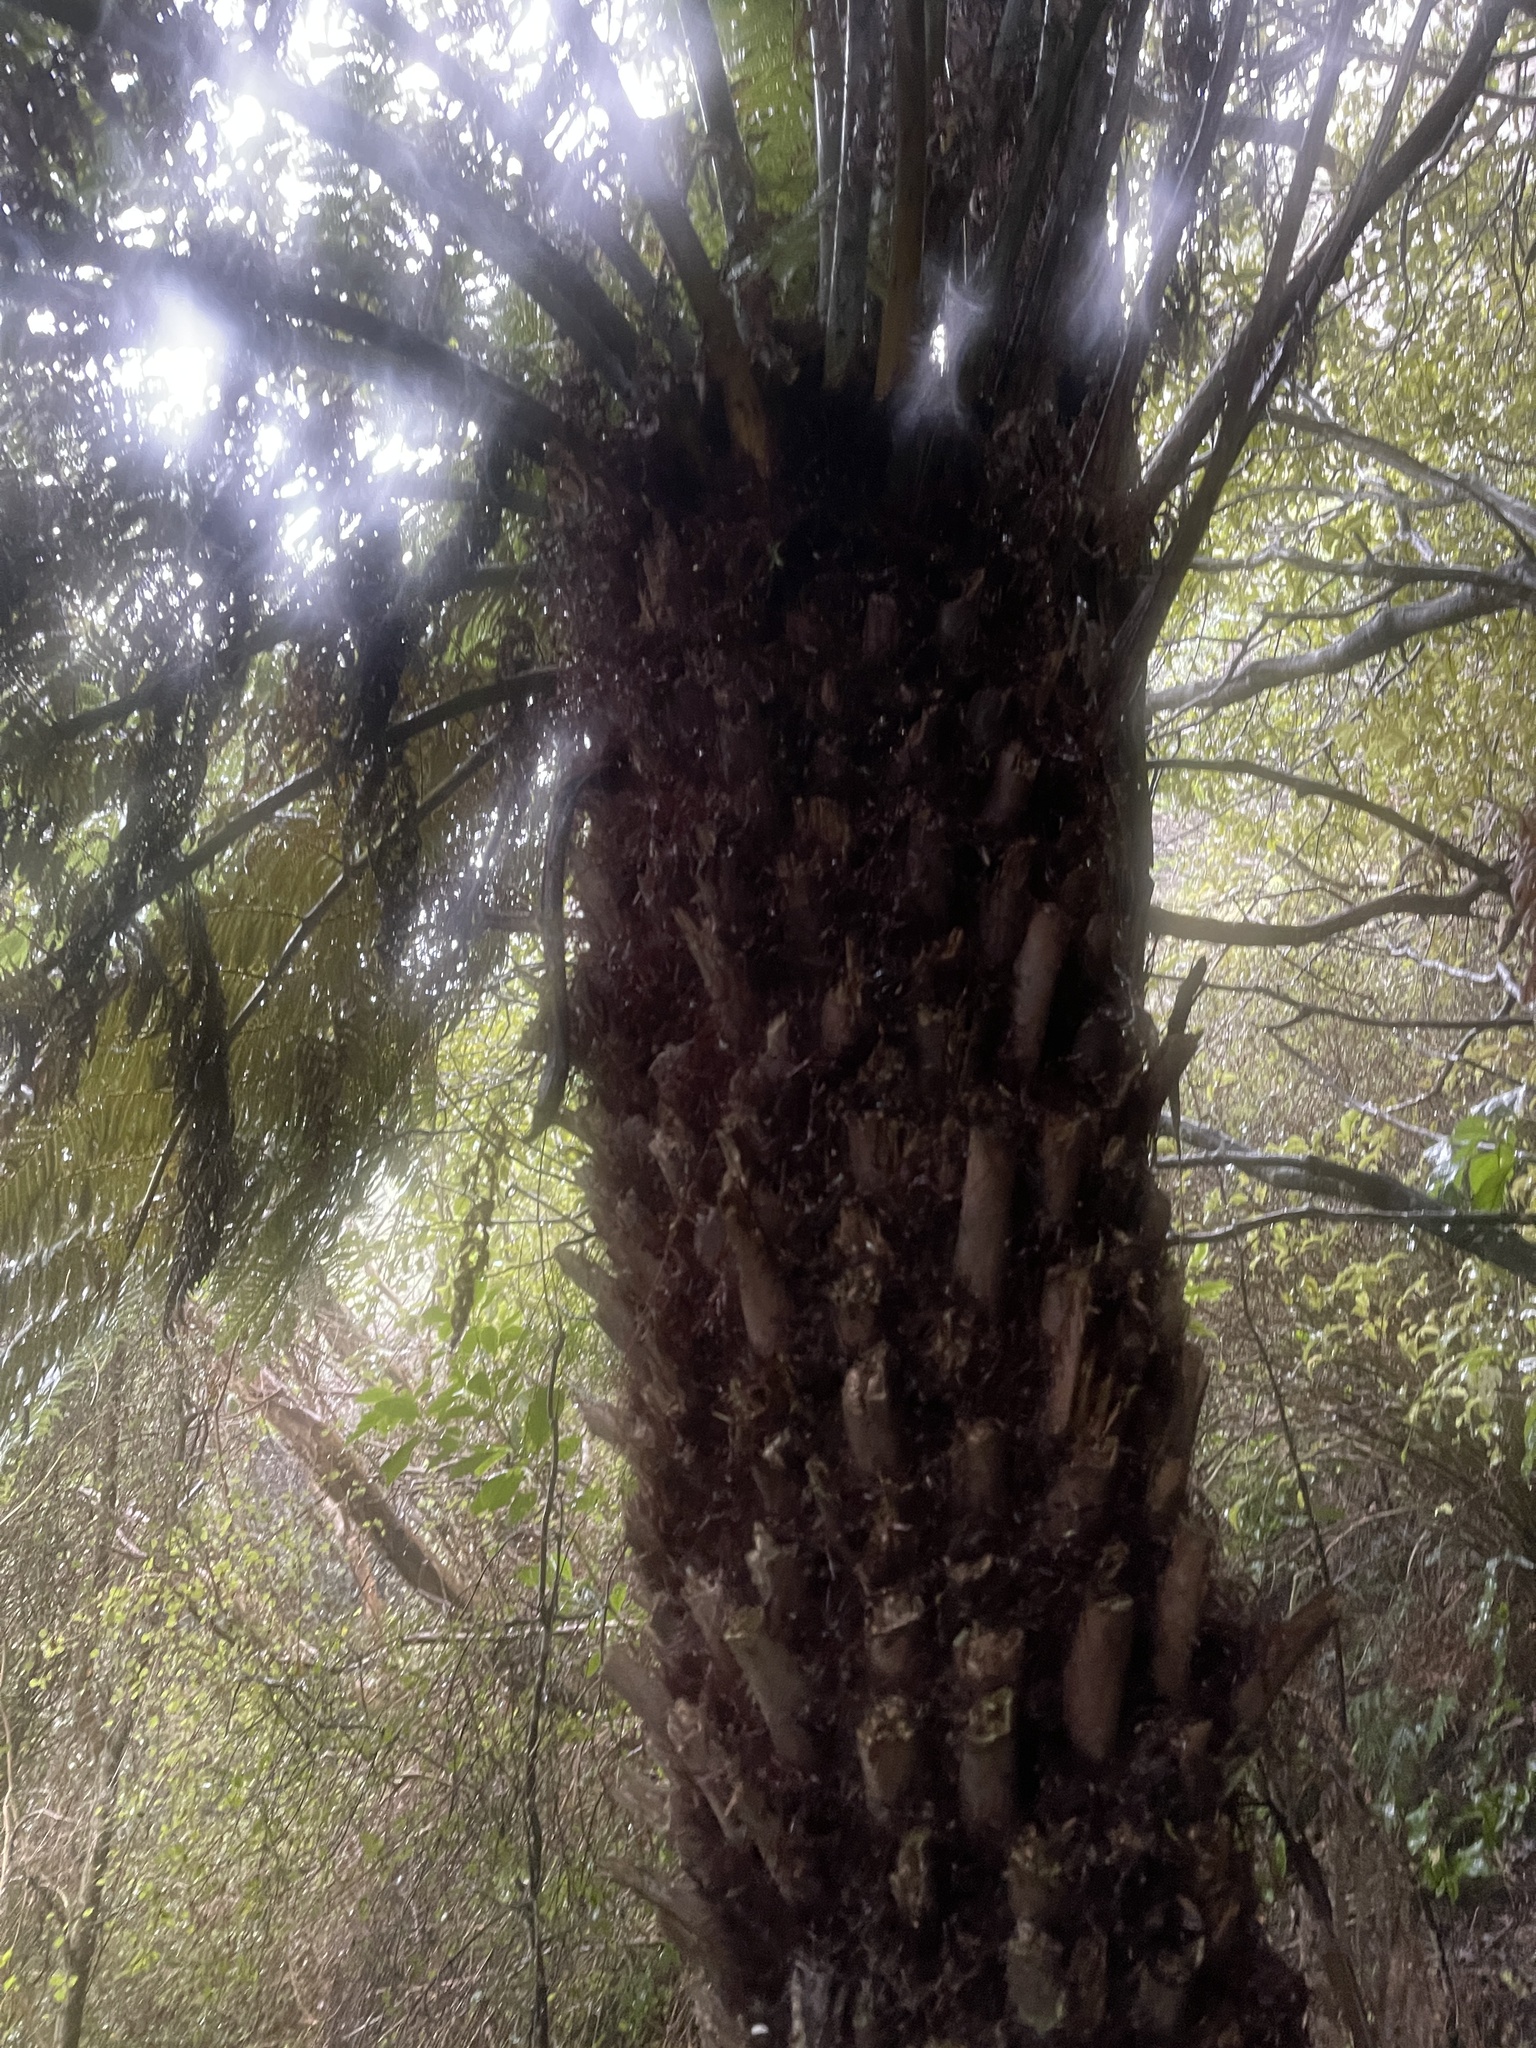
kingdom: Plantae
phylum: Tracheophyta
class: Polypodiopsida
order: Cyatheales
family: Cyatheaceae
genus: Alsophila
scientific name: Alsophila dealbata
